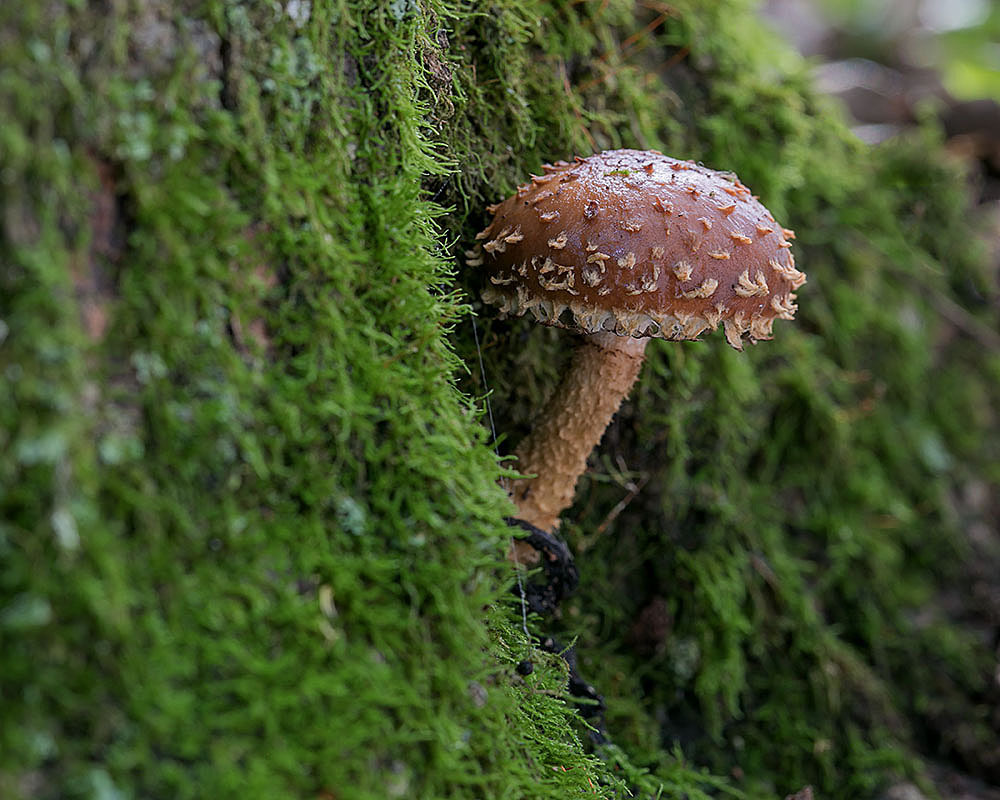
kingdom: Fungi
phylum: Basidiomycota
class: Agaricomycetes
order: Agaricales
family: Tubariaceae
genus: Hemistropharia
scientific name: Hemistropharia albocrenulata
